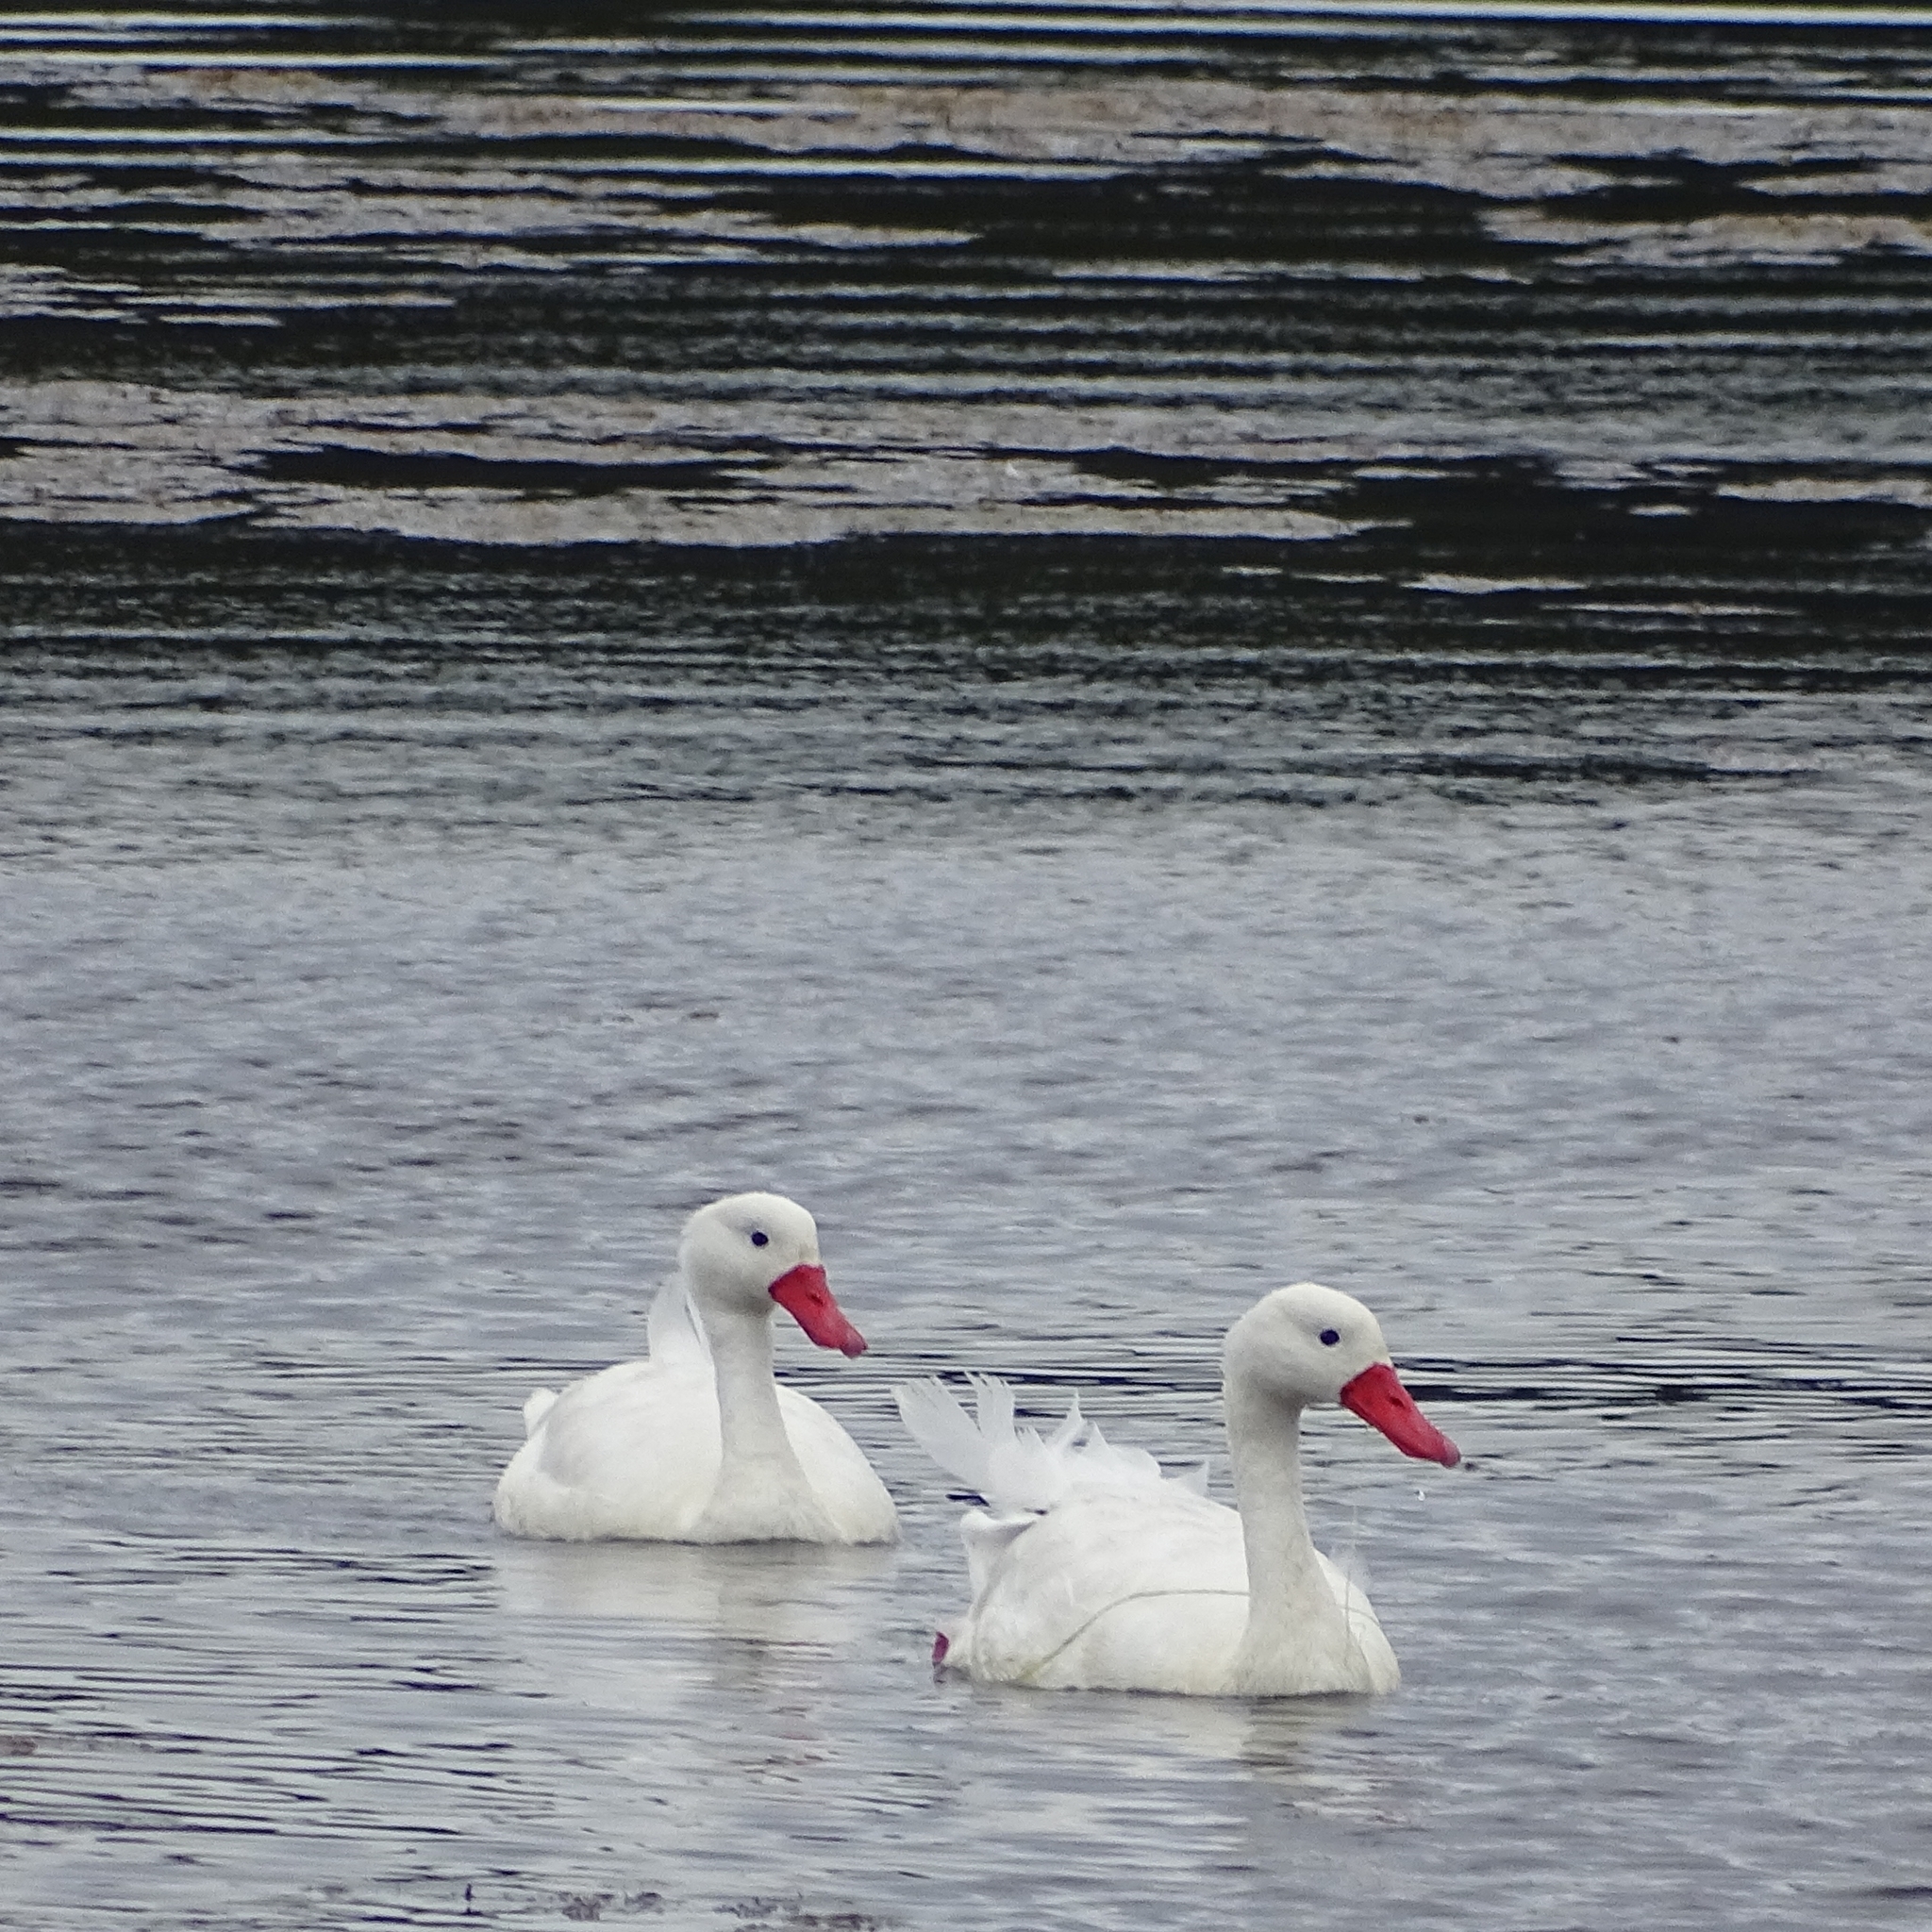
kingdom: Animalia
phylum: Chordata
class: Aves
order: Anseriformes
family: Anatidae
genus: Coscoroba
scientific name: Coscoroba coscoroba
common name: Coscoroba swan
